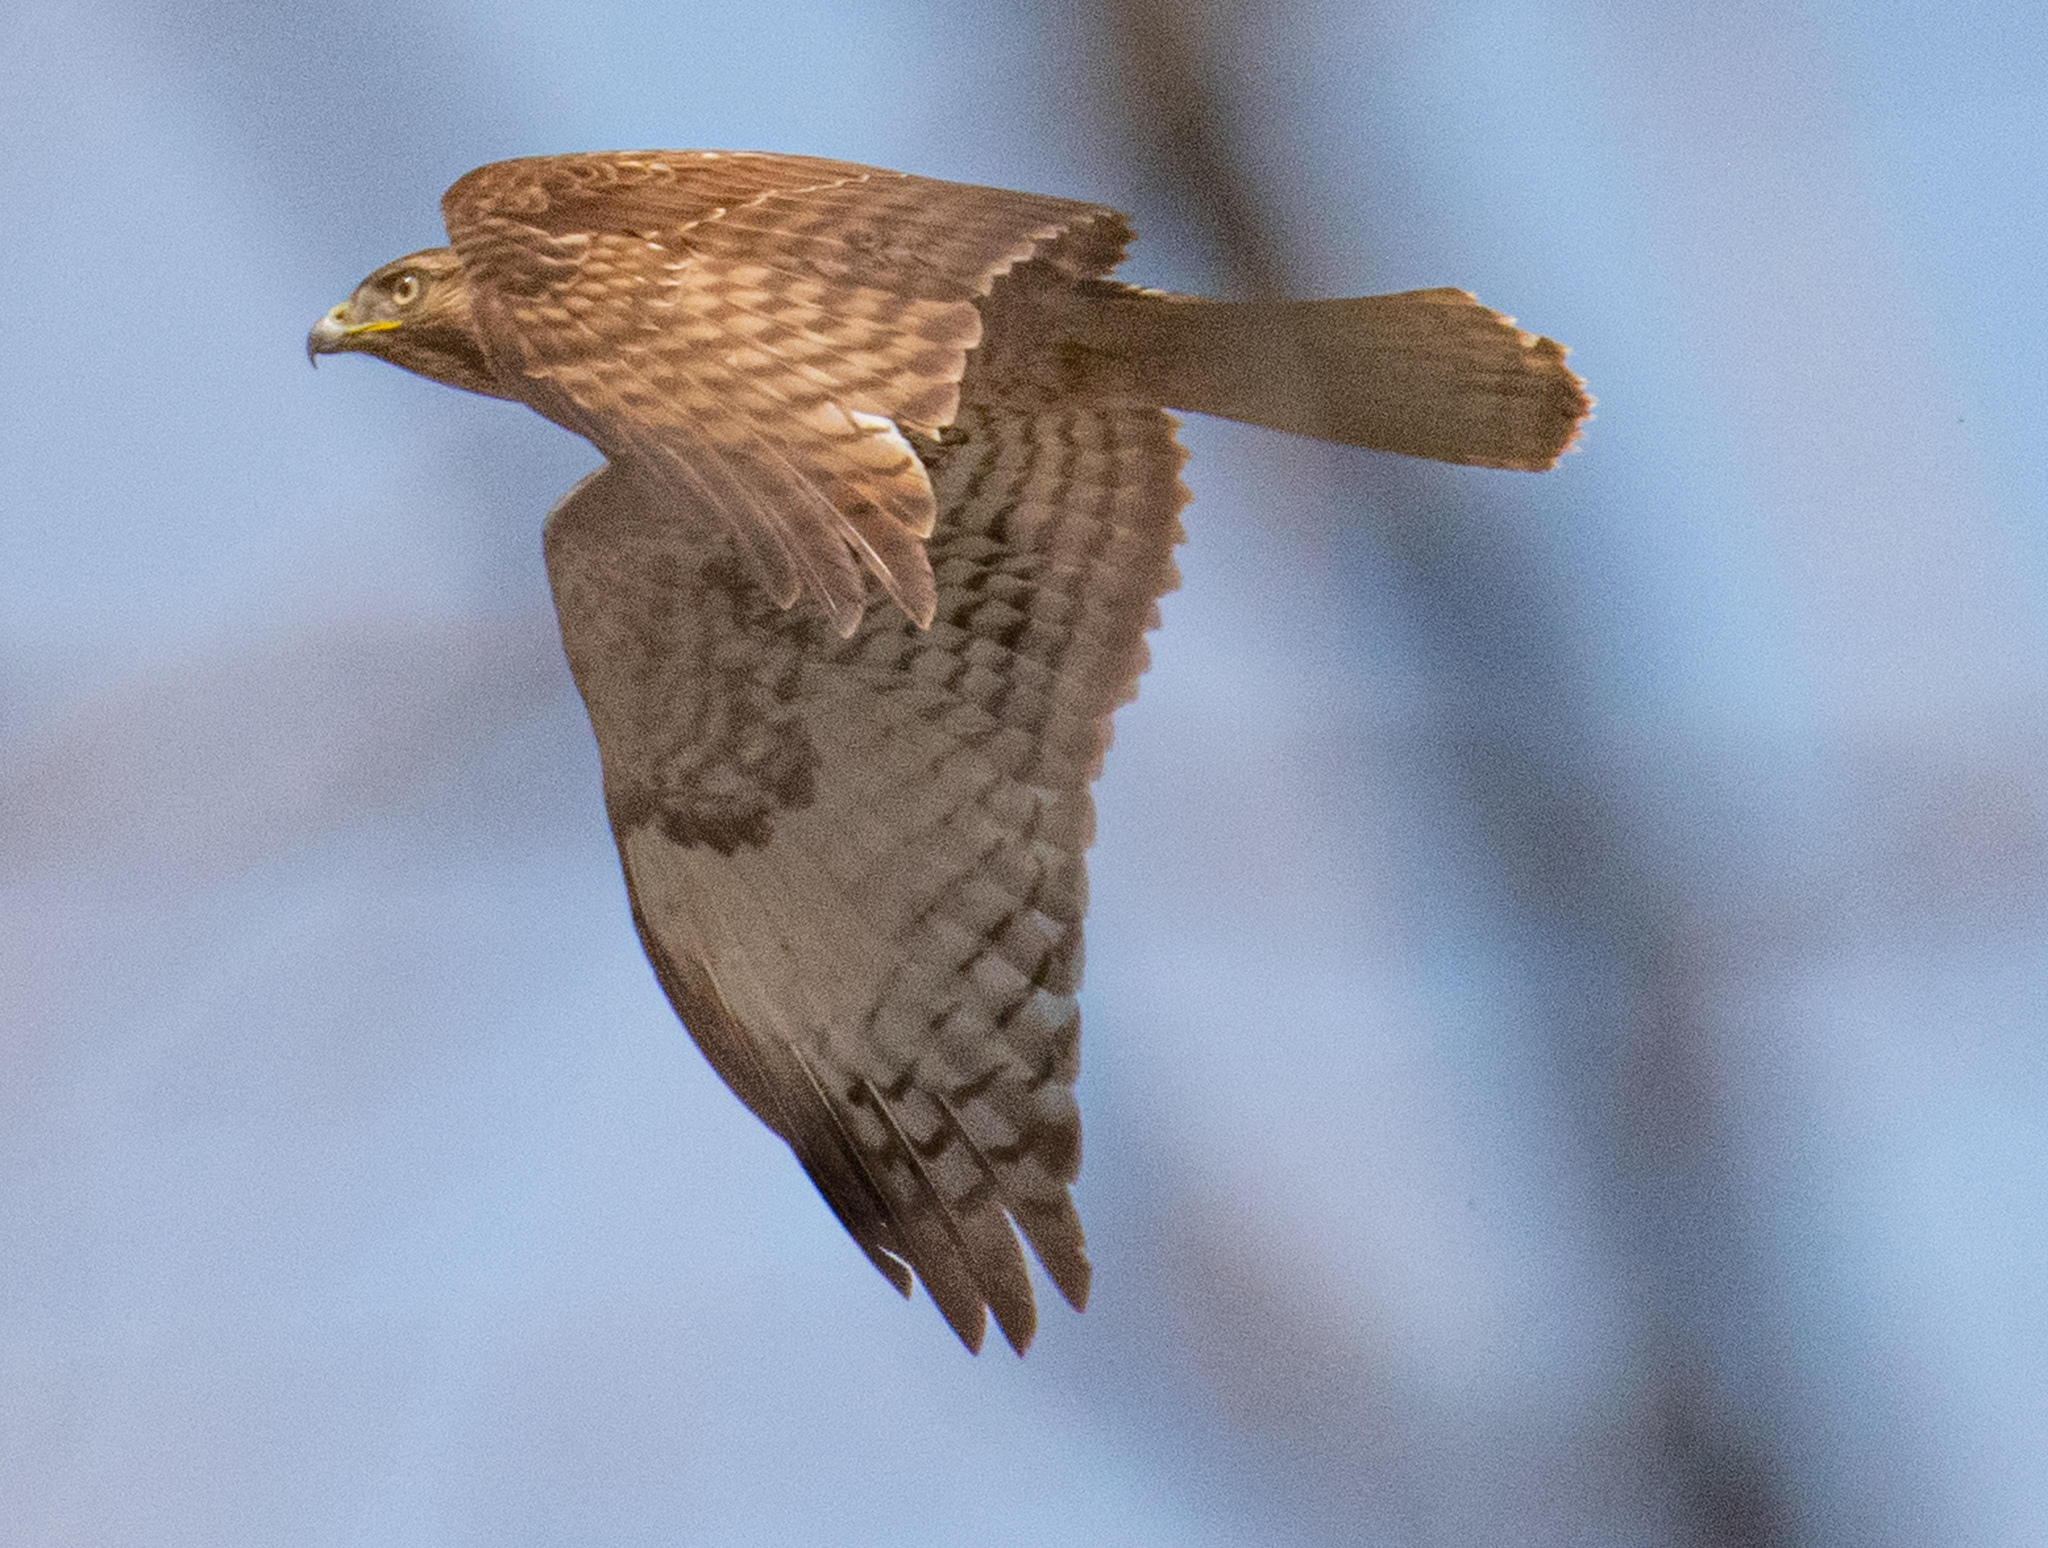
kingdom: Animalia
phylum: Chordata
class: Aves
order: Accipitriformes
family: Accipitridae
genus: Buteo
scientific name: Buteo jamaicensis
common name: Red-tailed hawk
